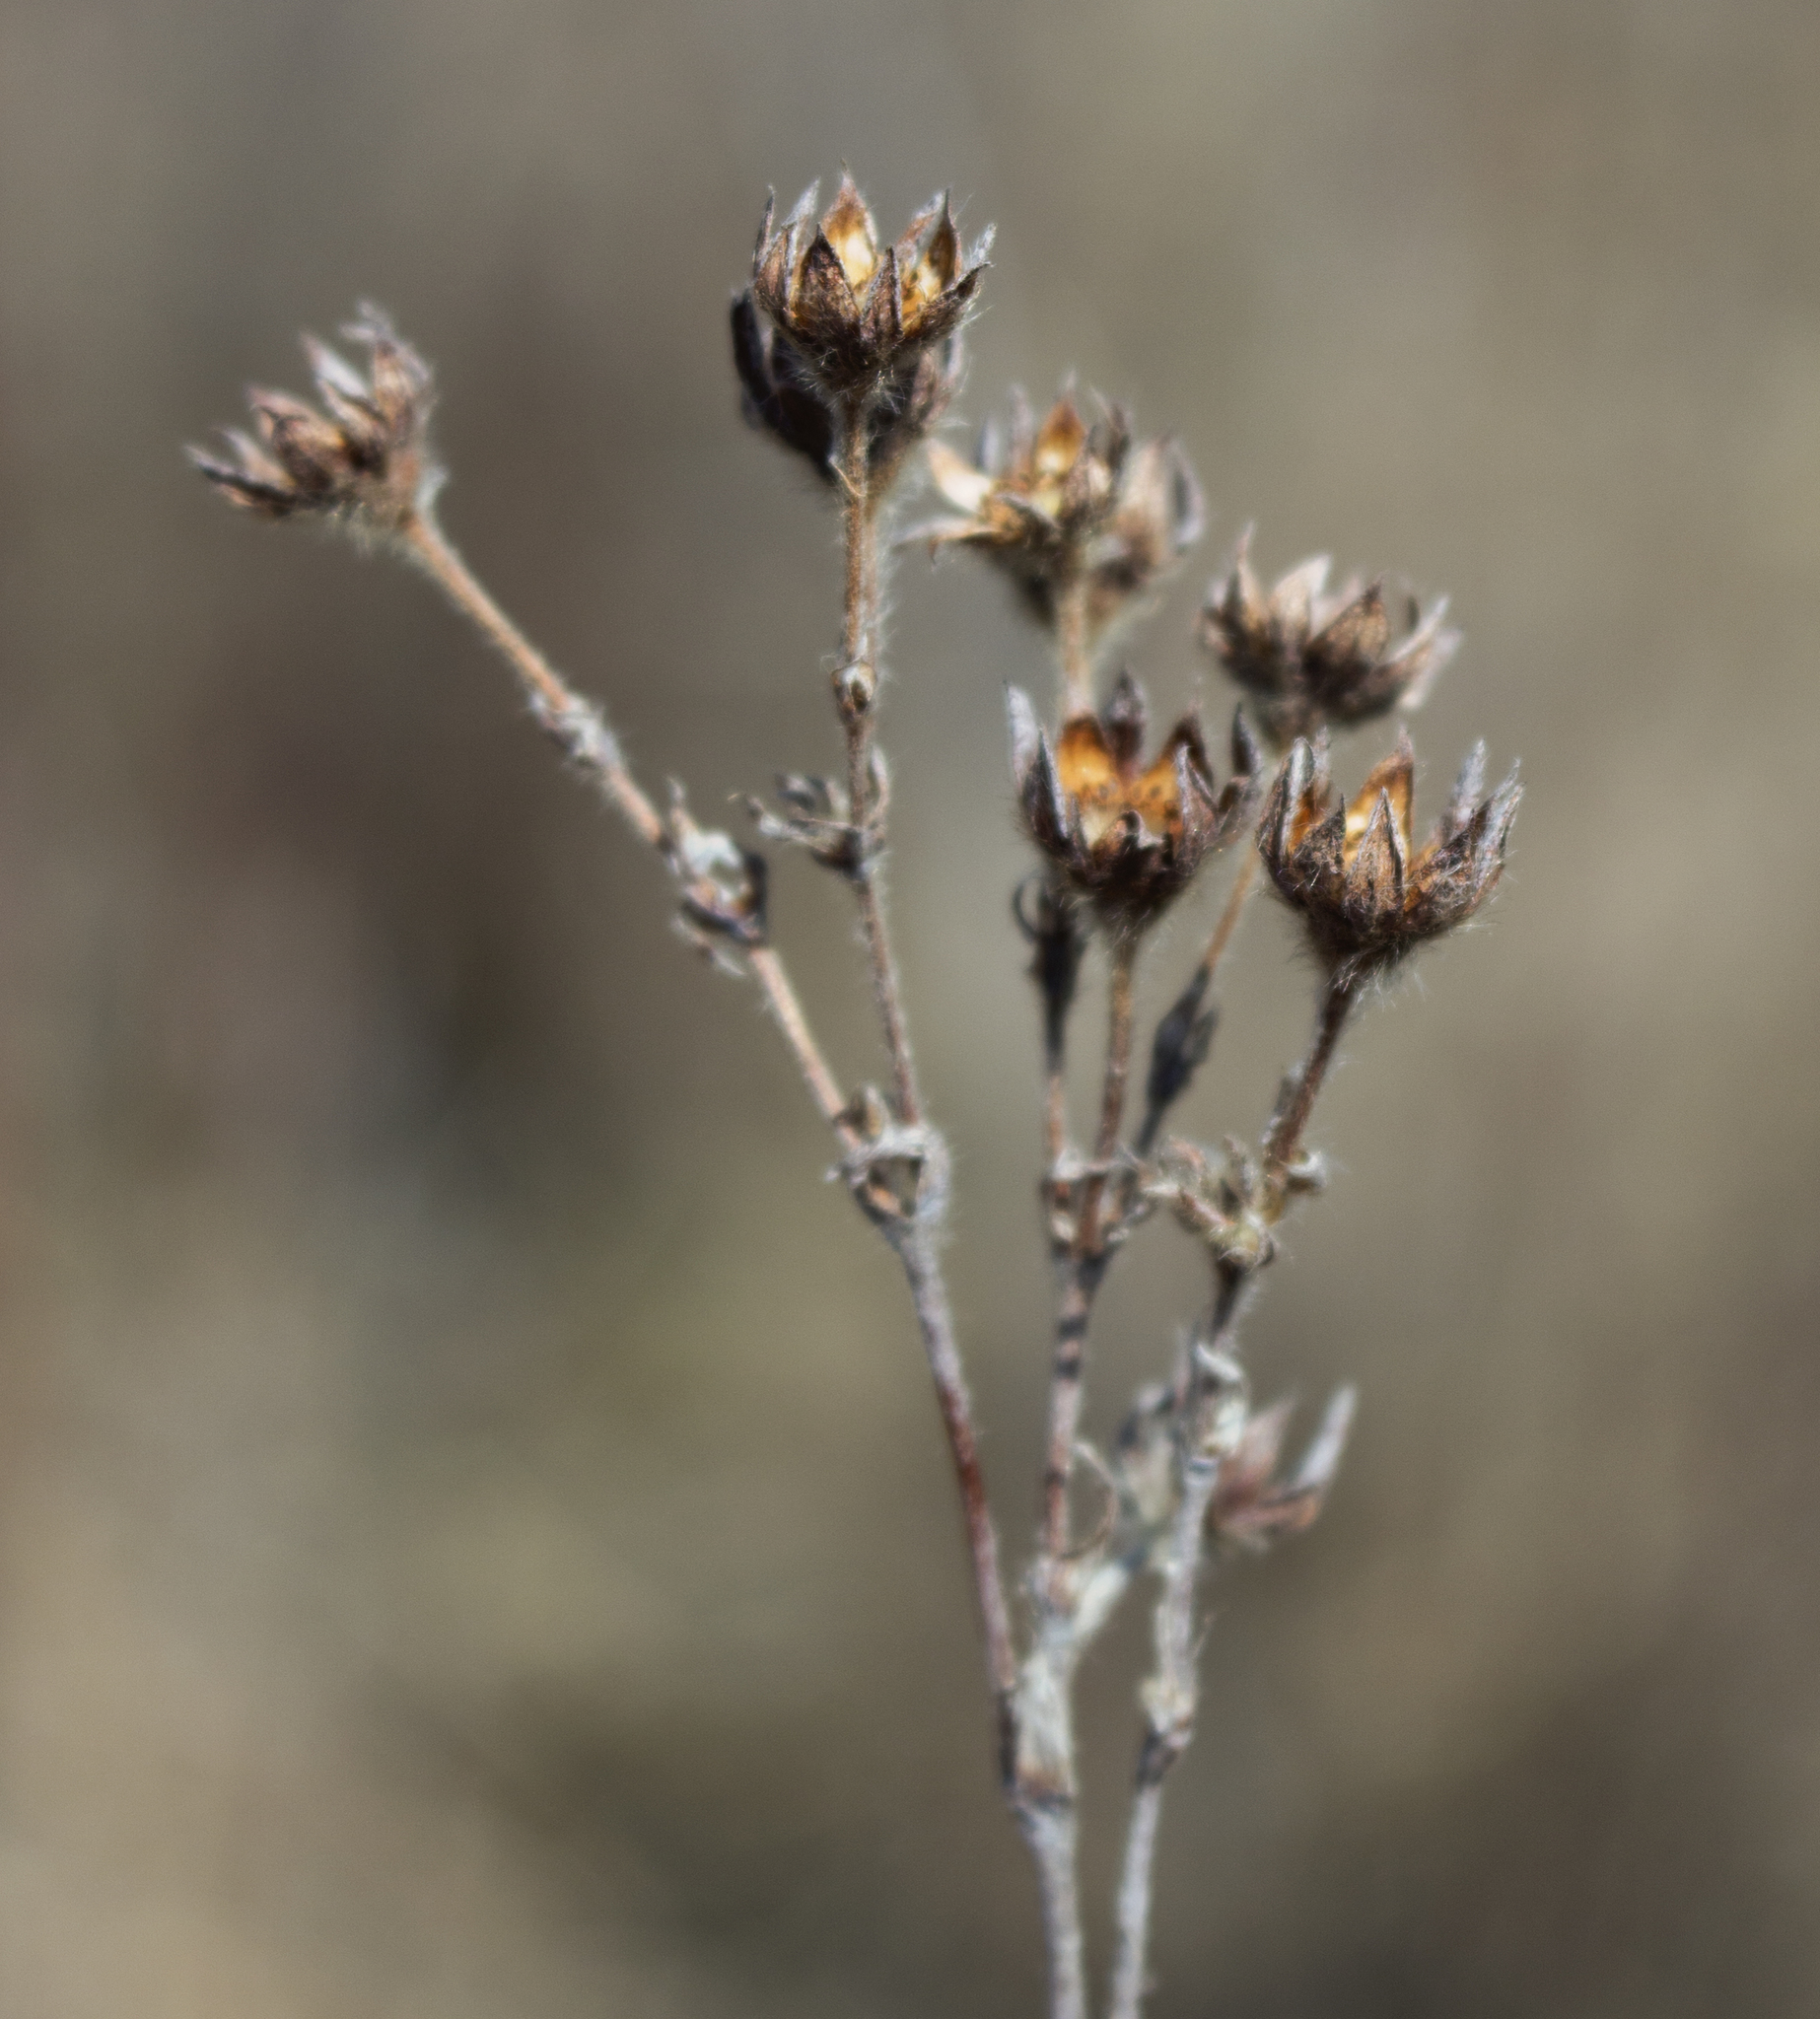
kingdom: Plantae
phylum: Tracheophyta
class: Magnoliopsida
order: Rosales
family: Rosaceae
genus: Dasiphora
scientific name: Dasiphora fruticosa
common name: Shrubby cinquefoil
